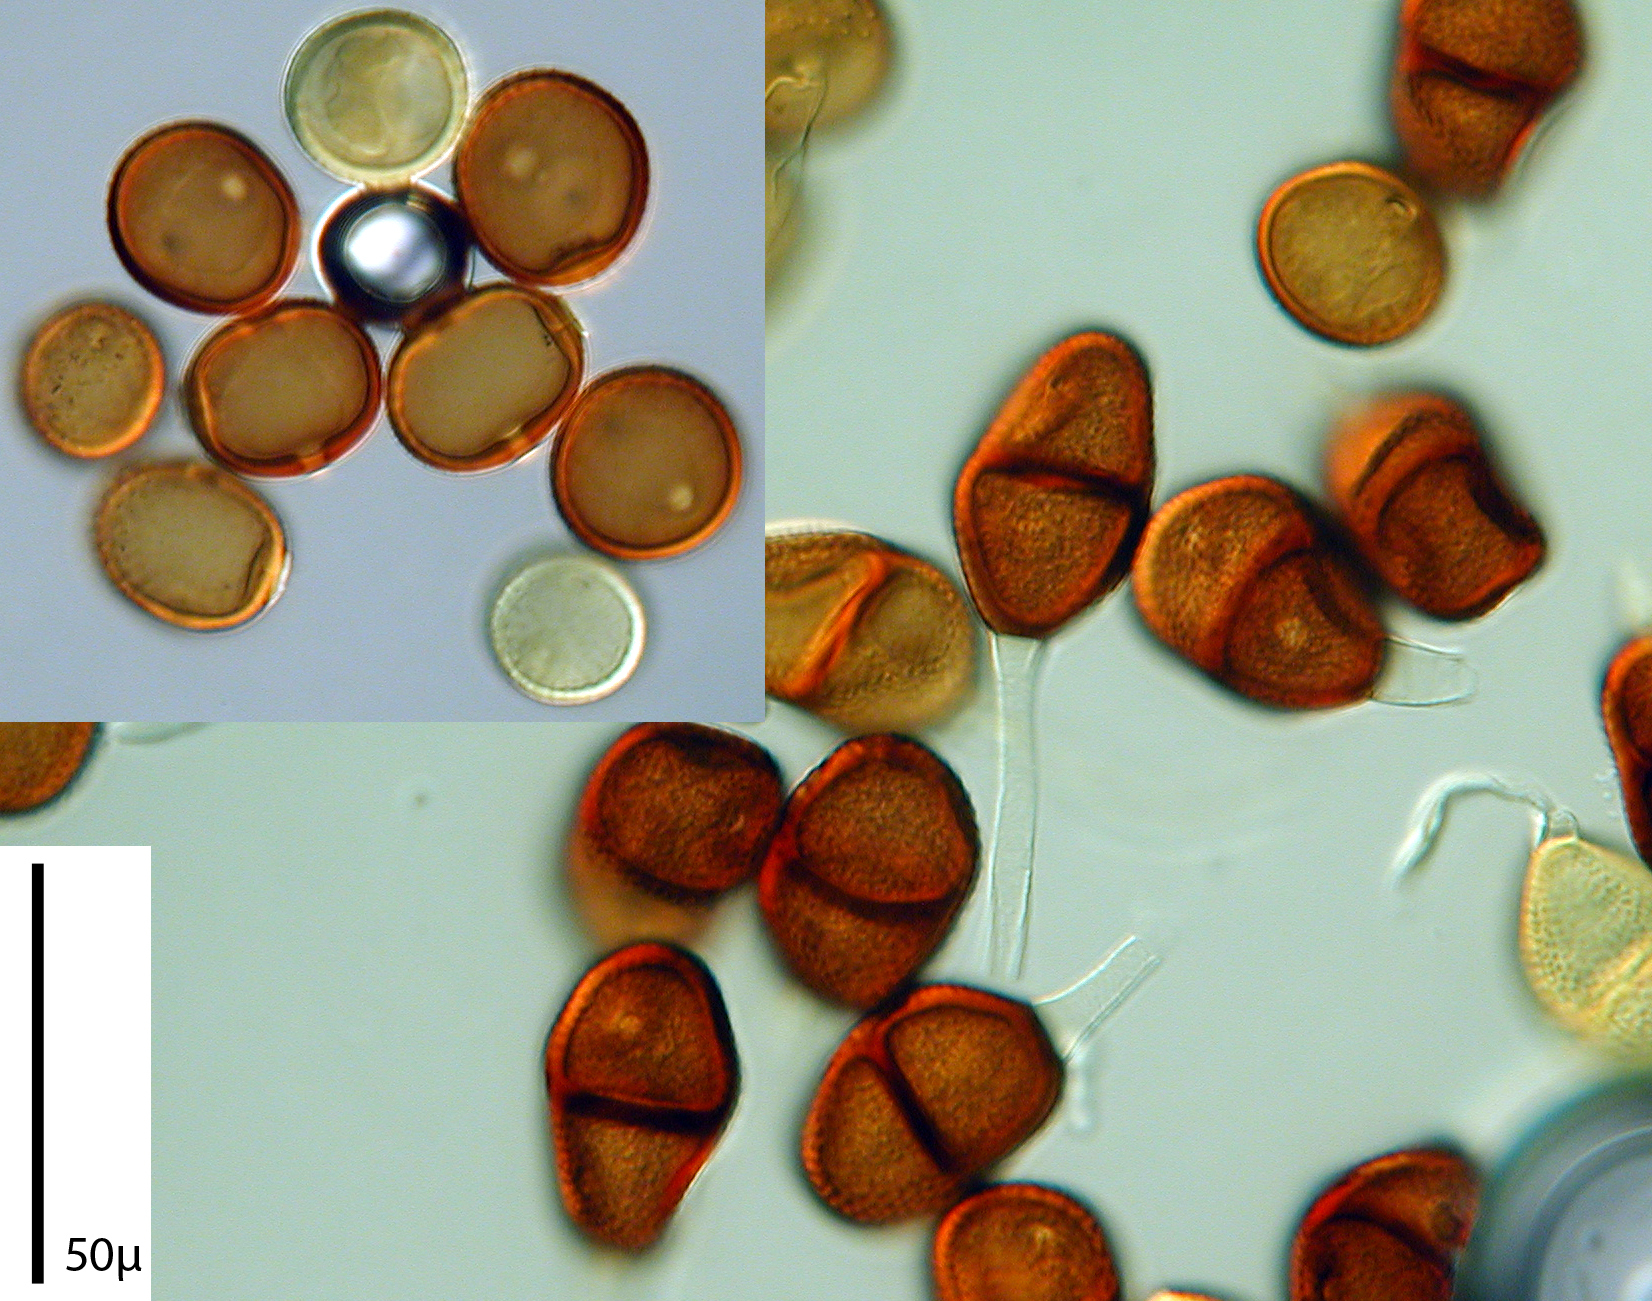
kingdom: Fungi
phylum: Basidiomycota
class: Pucciniomycetes
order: Pucciniales
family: Pucciniaceae
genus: Puccinia
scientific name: Puccinia cyani
